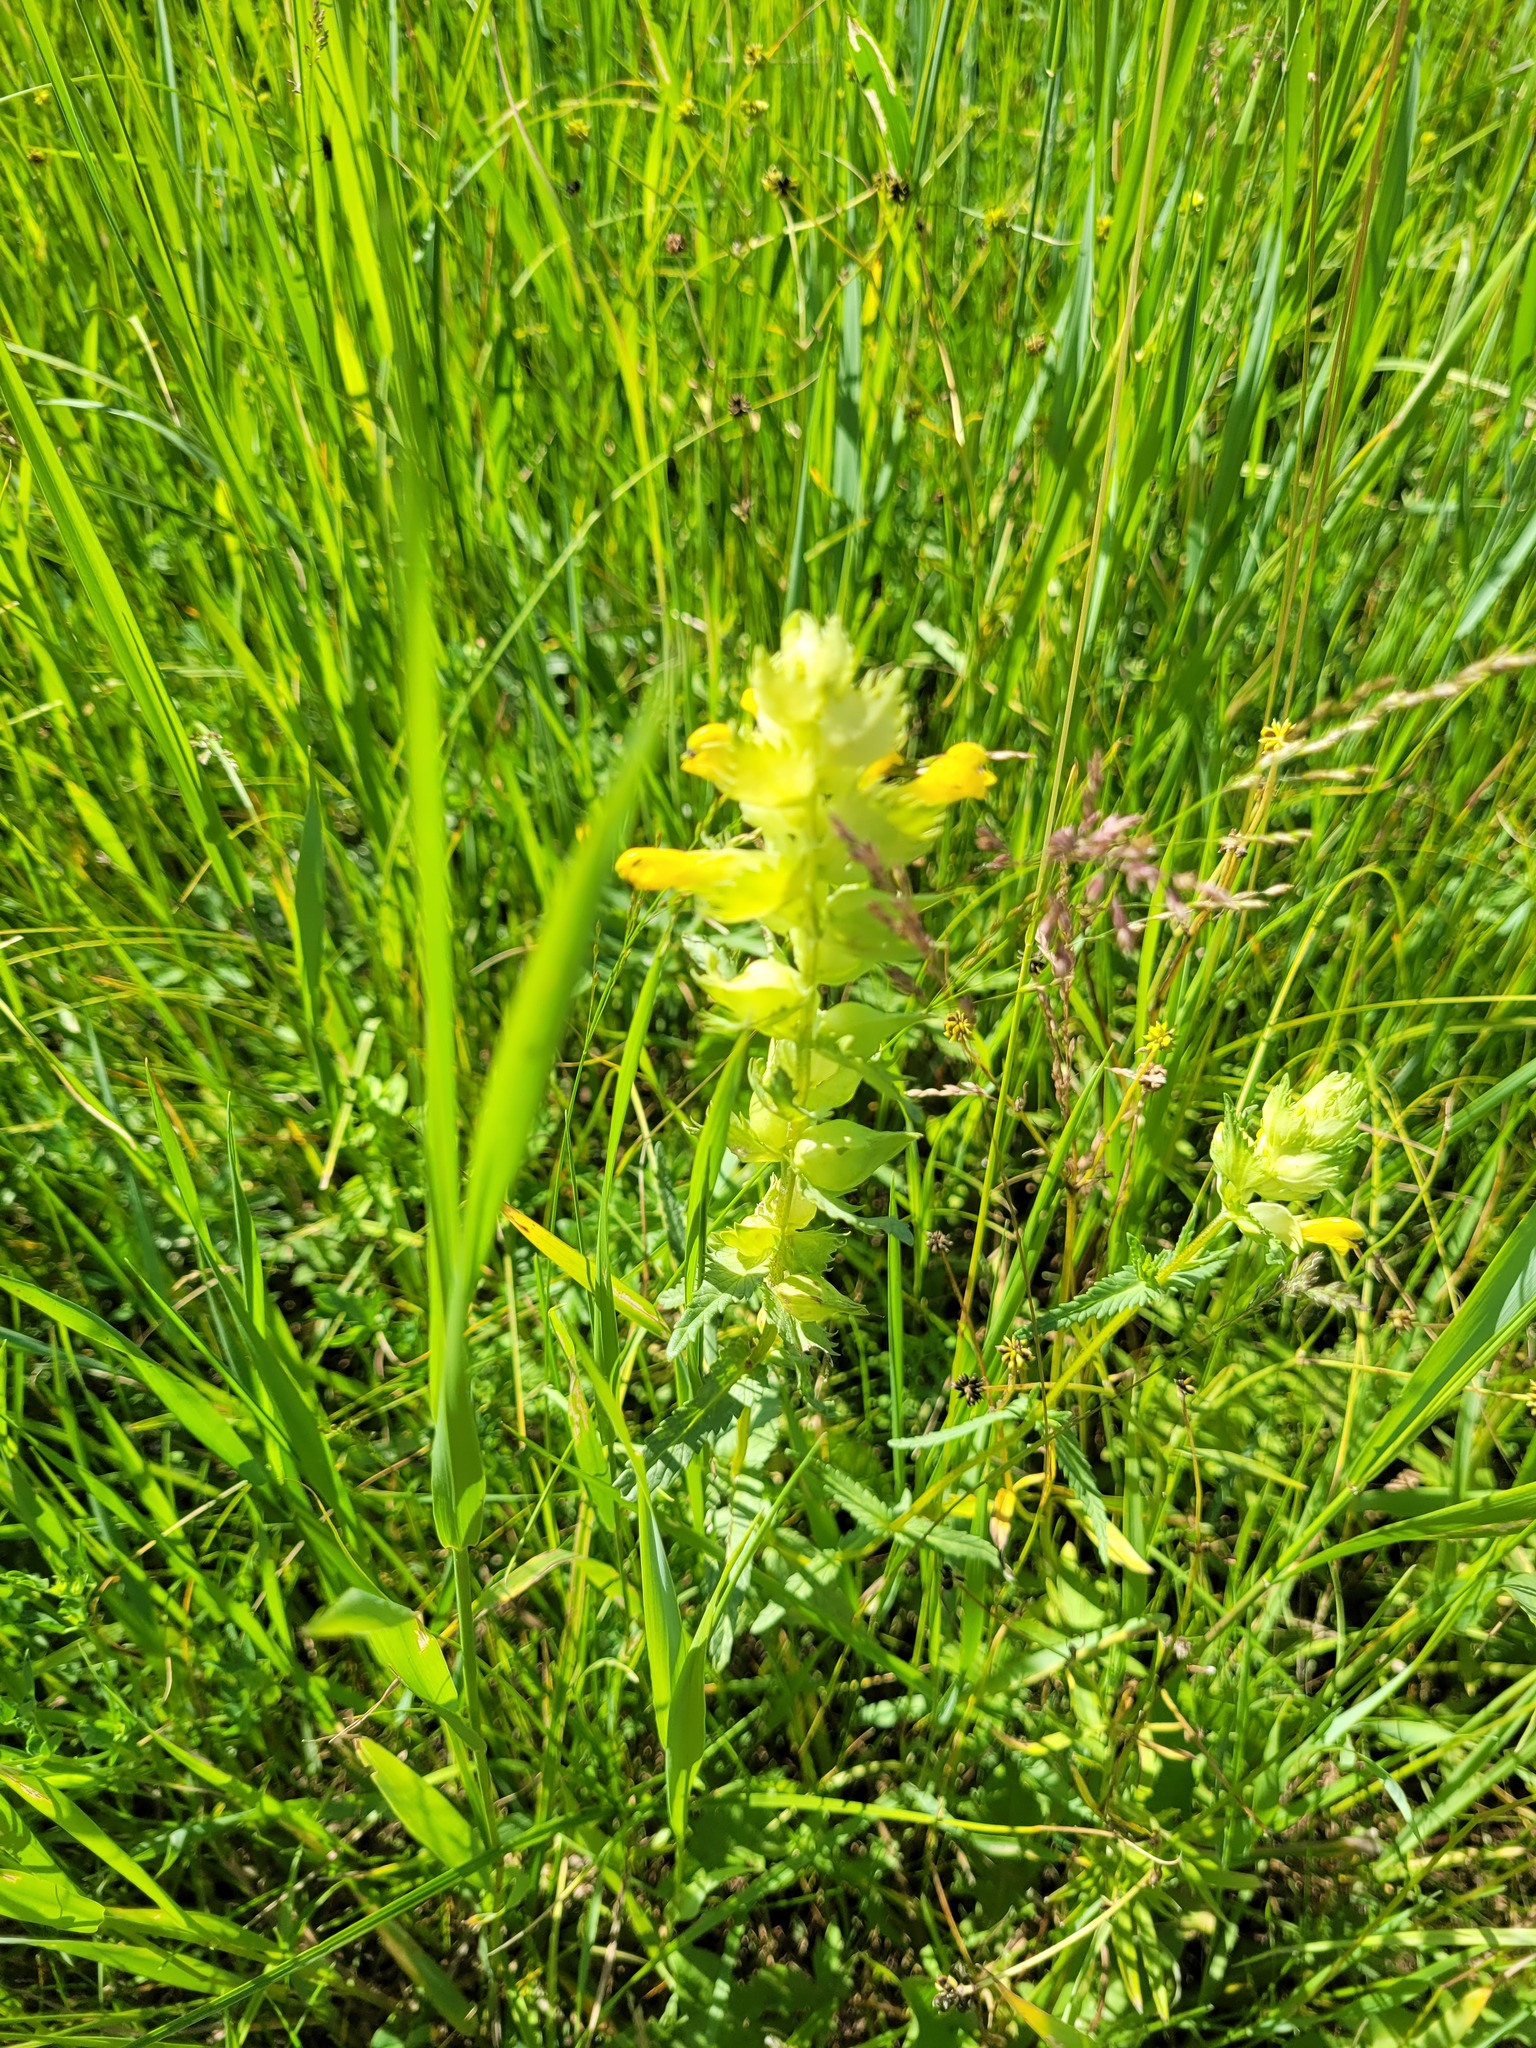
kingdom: Plantae
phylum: Tracheophyta
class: Magnoliopsida
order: Lamiales
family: Orobanchaceae
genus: Rhinanthus
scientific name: Rhinanthus serotinus
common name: Late-flowering yellow rattle
